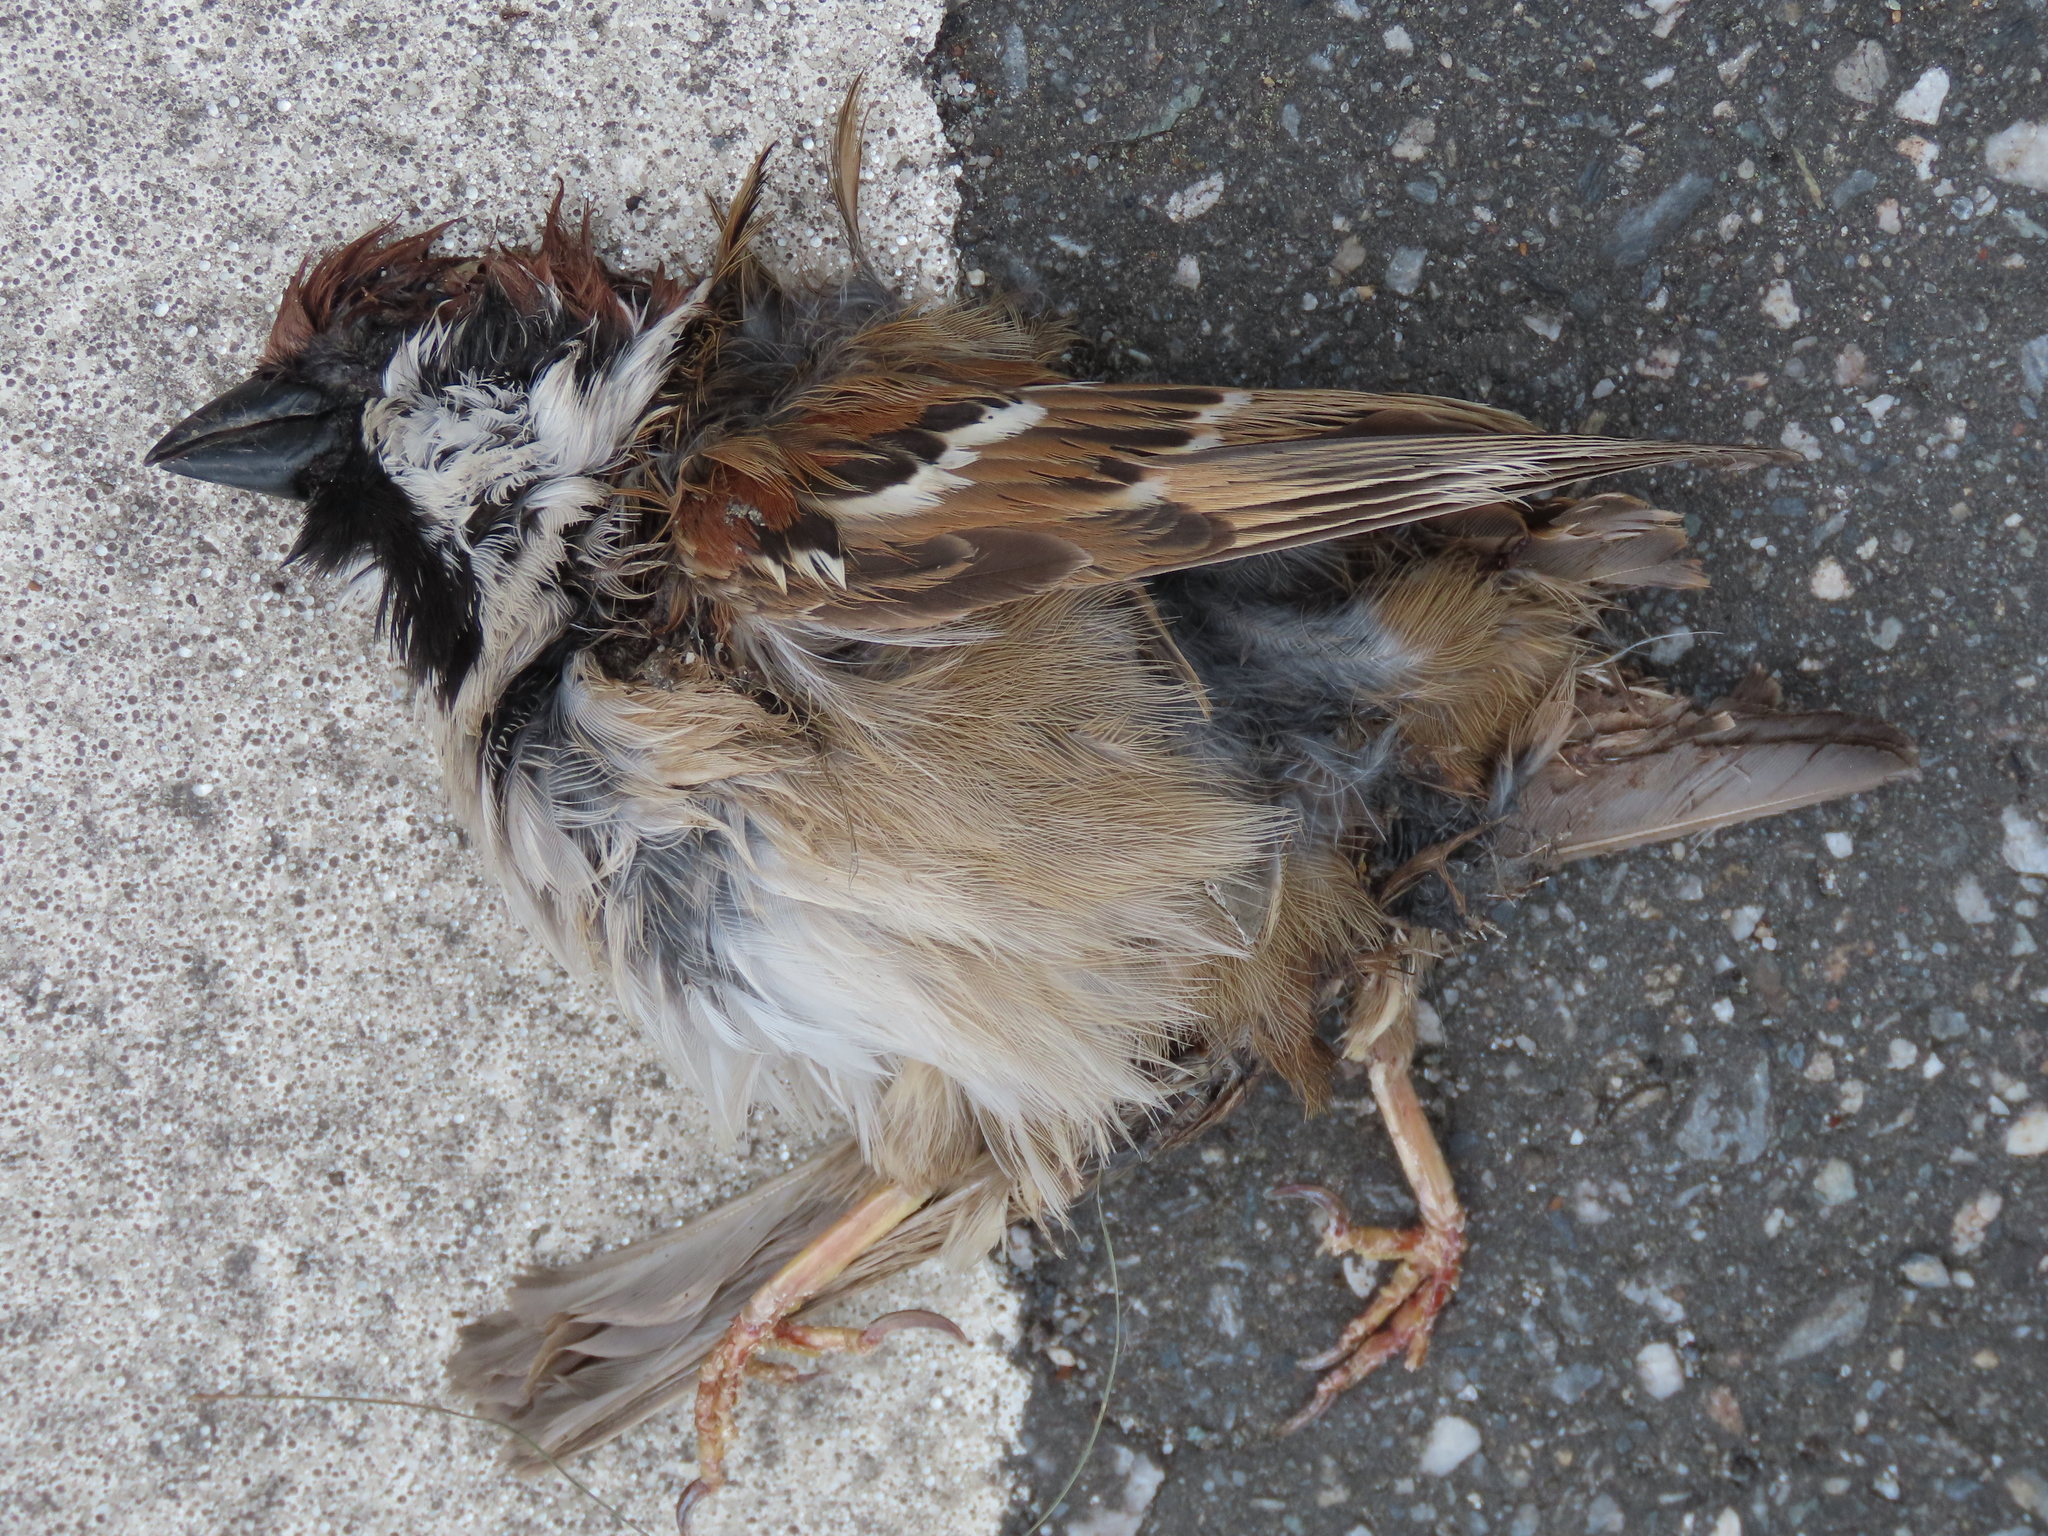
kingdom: Animalia
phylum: Chordata
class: Aves
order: Passeriformes
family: Passeridae
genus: Passer
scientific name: Passer montanus
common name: Eurasian tree sparrow
